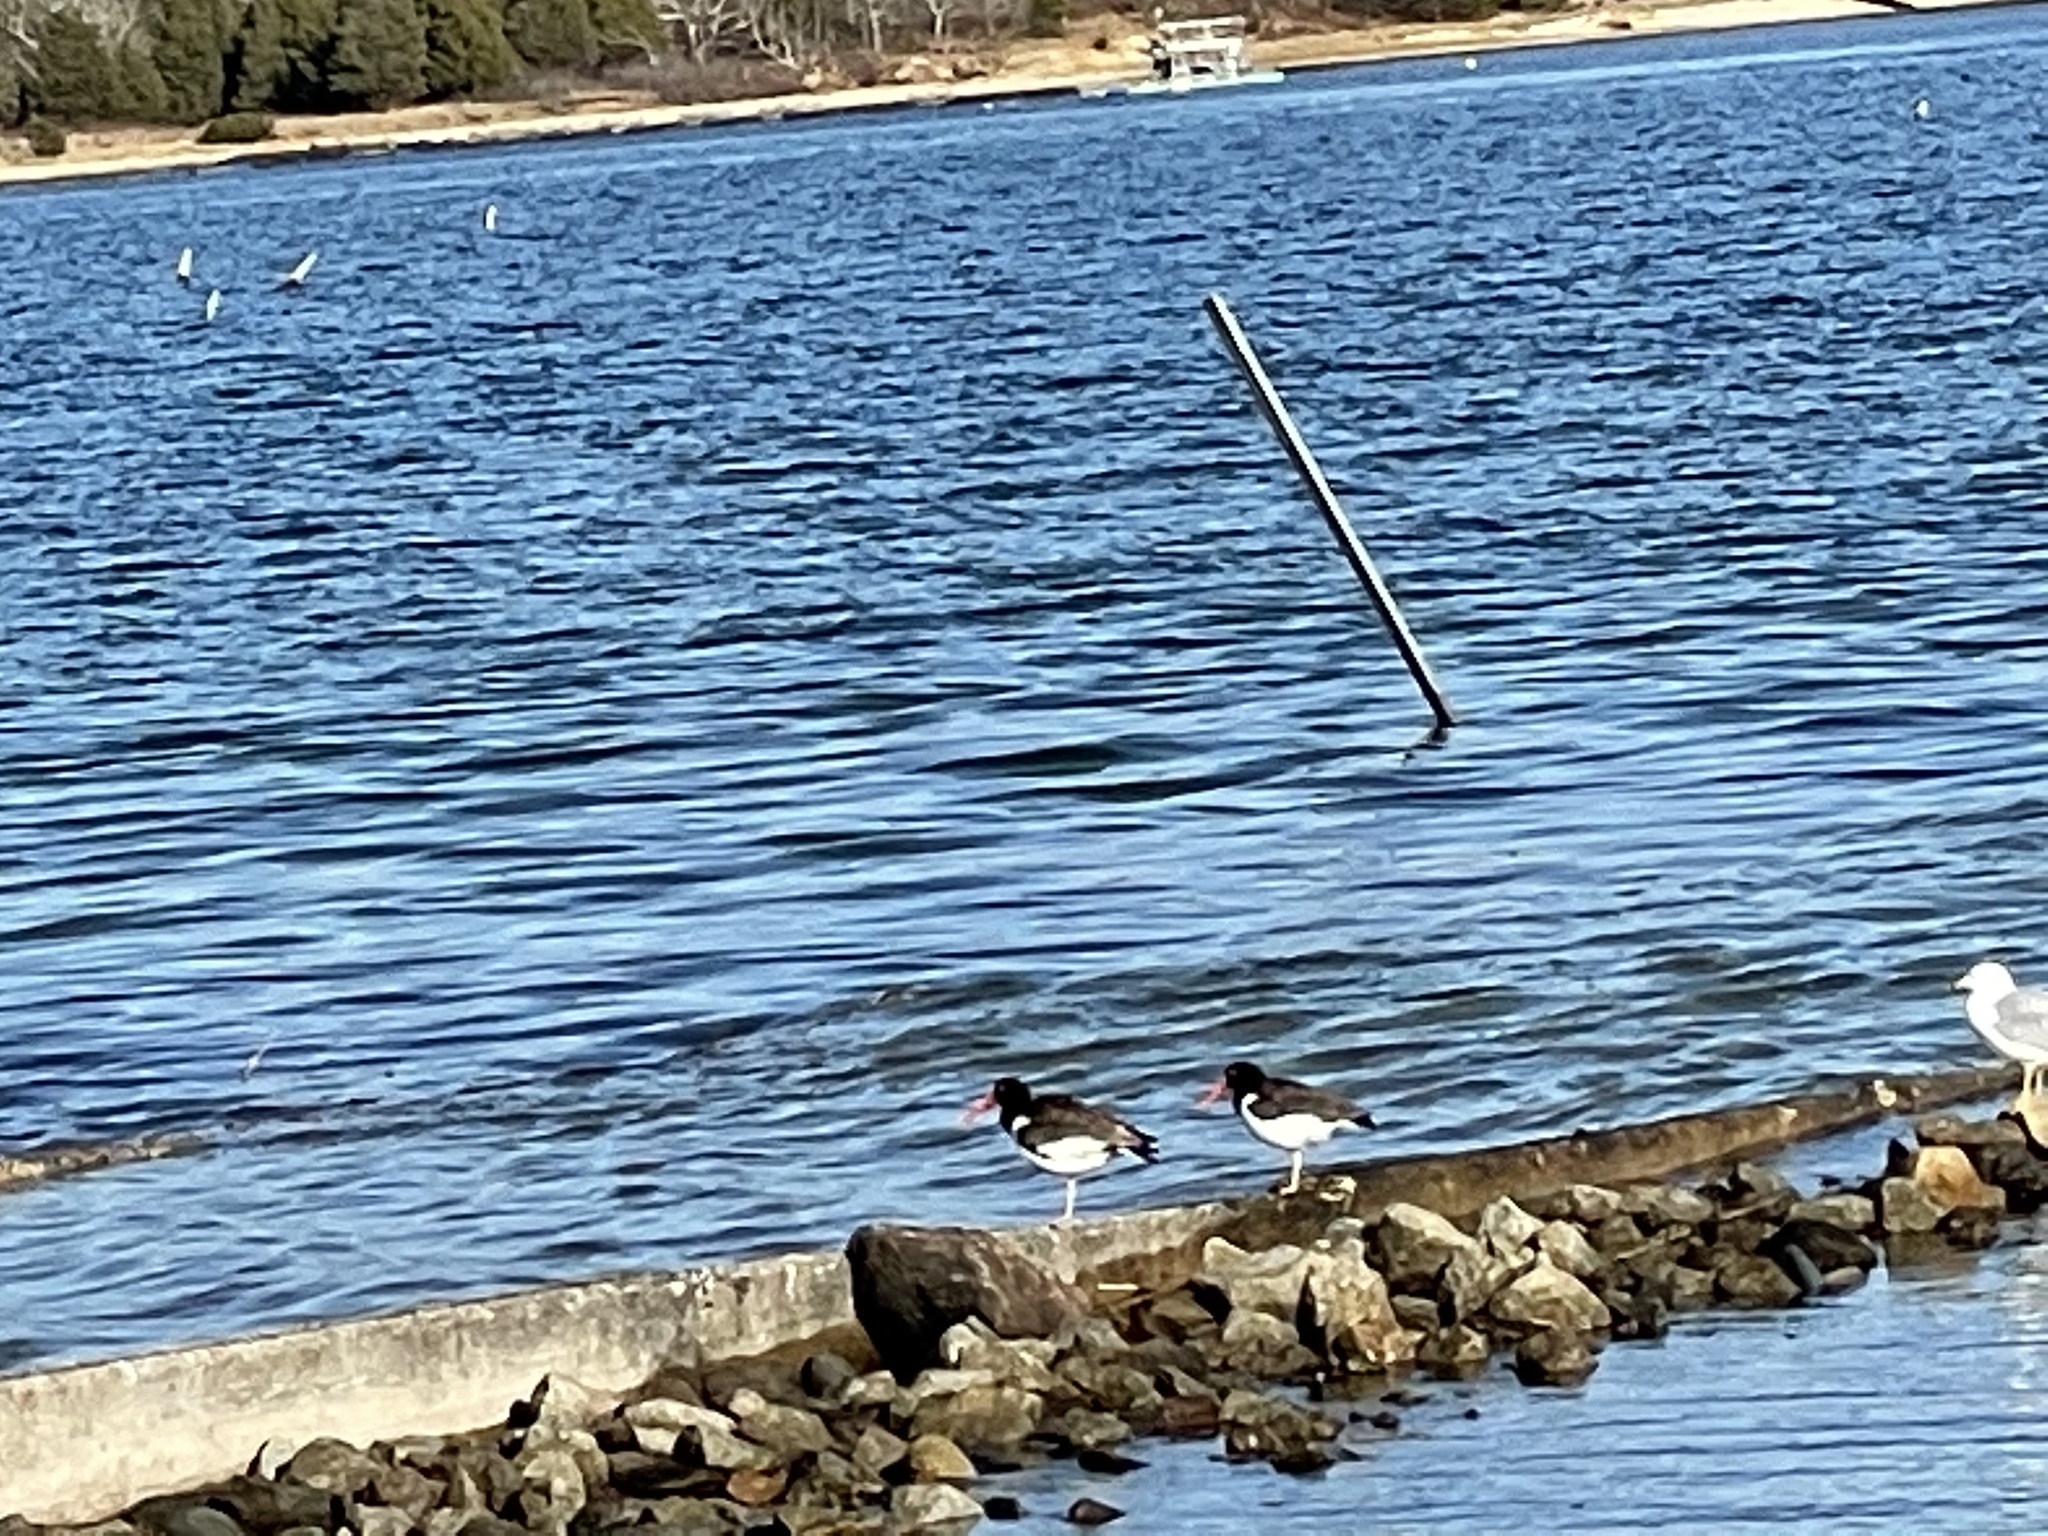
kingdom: Animalia
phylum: Chordata
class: Aves
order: Charadriiformes
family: Haematopodidae
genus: Haematopus
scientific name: Haematopus palliatus
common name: American oystercatcher
